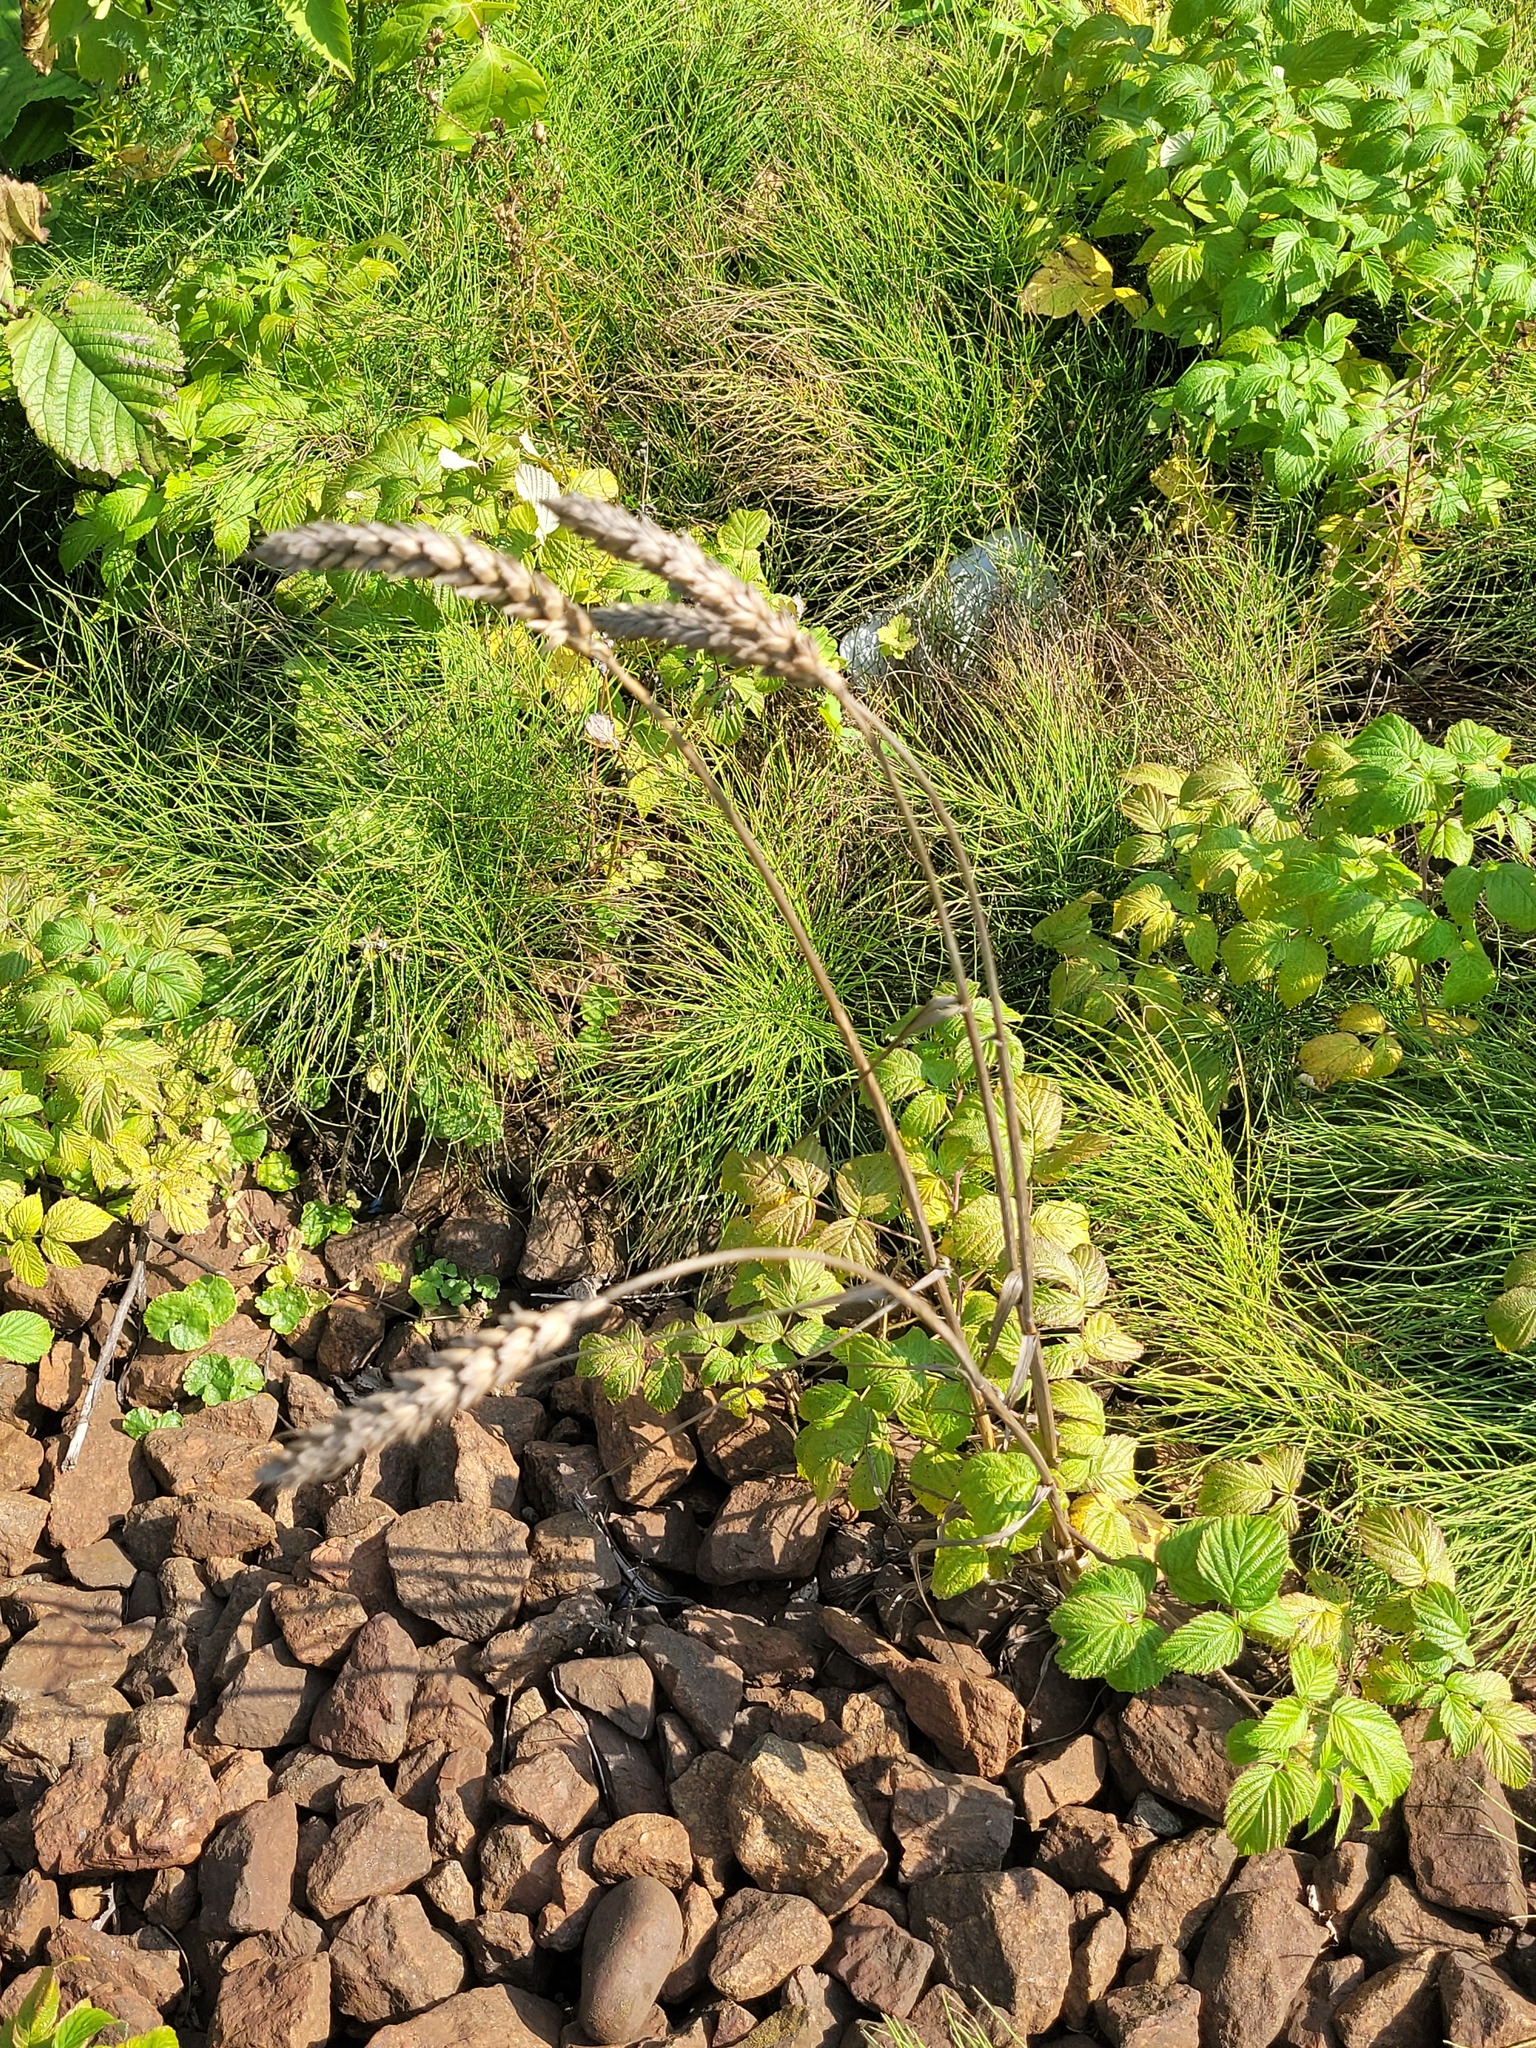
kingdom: Plantae
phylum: Tracheophyta
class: Liliopsida
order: Poales
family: Poaceae
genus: Triticum
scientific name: Triticum aestivum
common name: Common wheat
